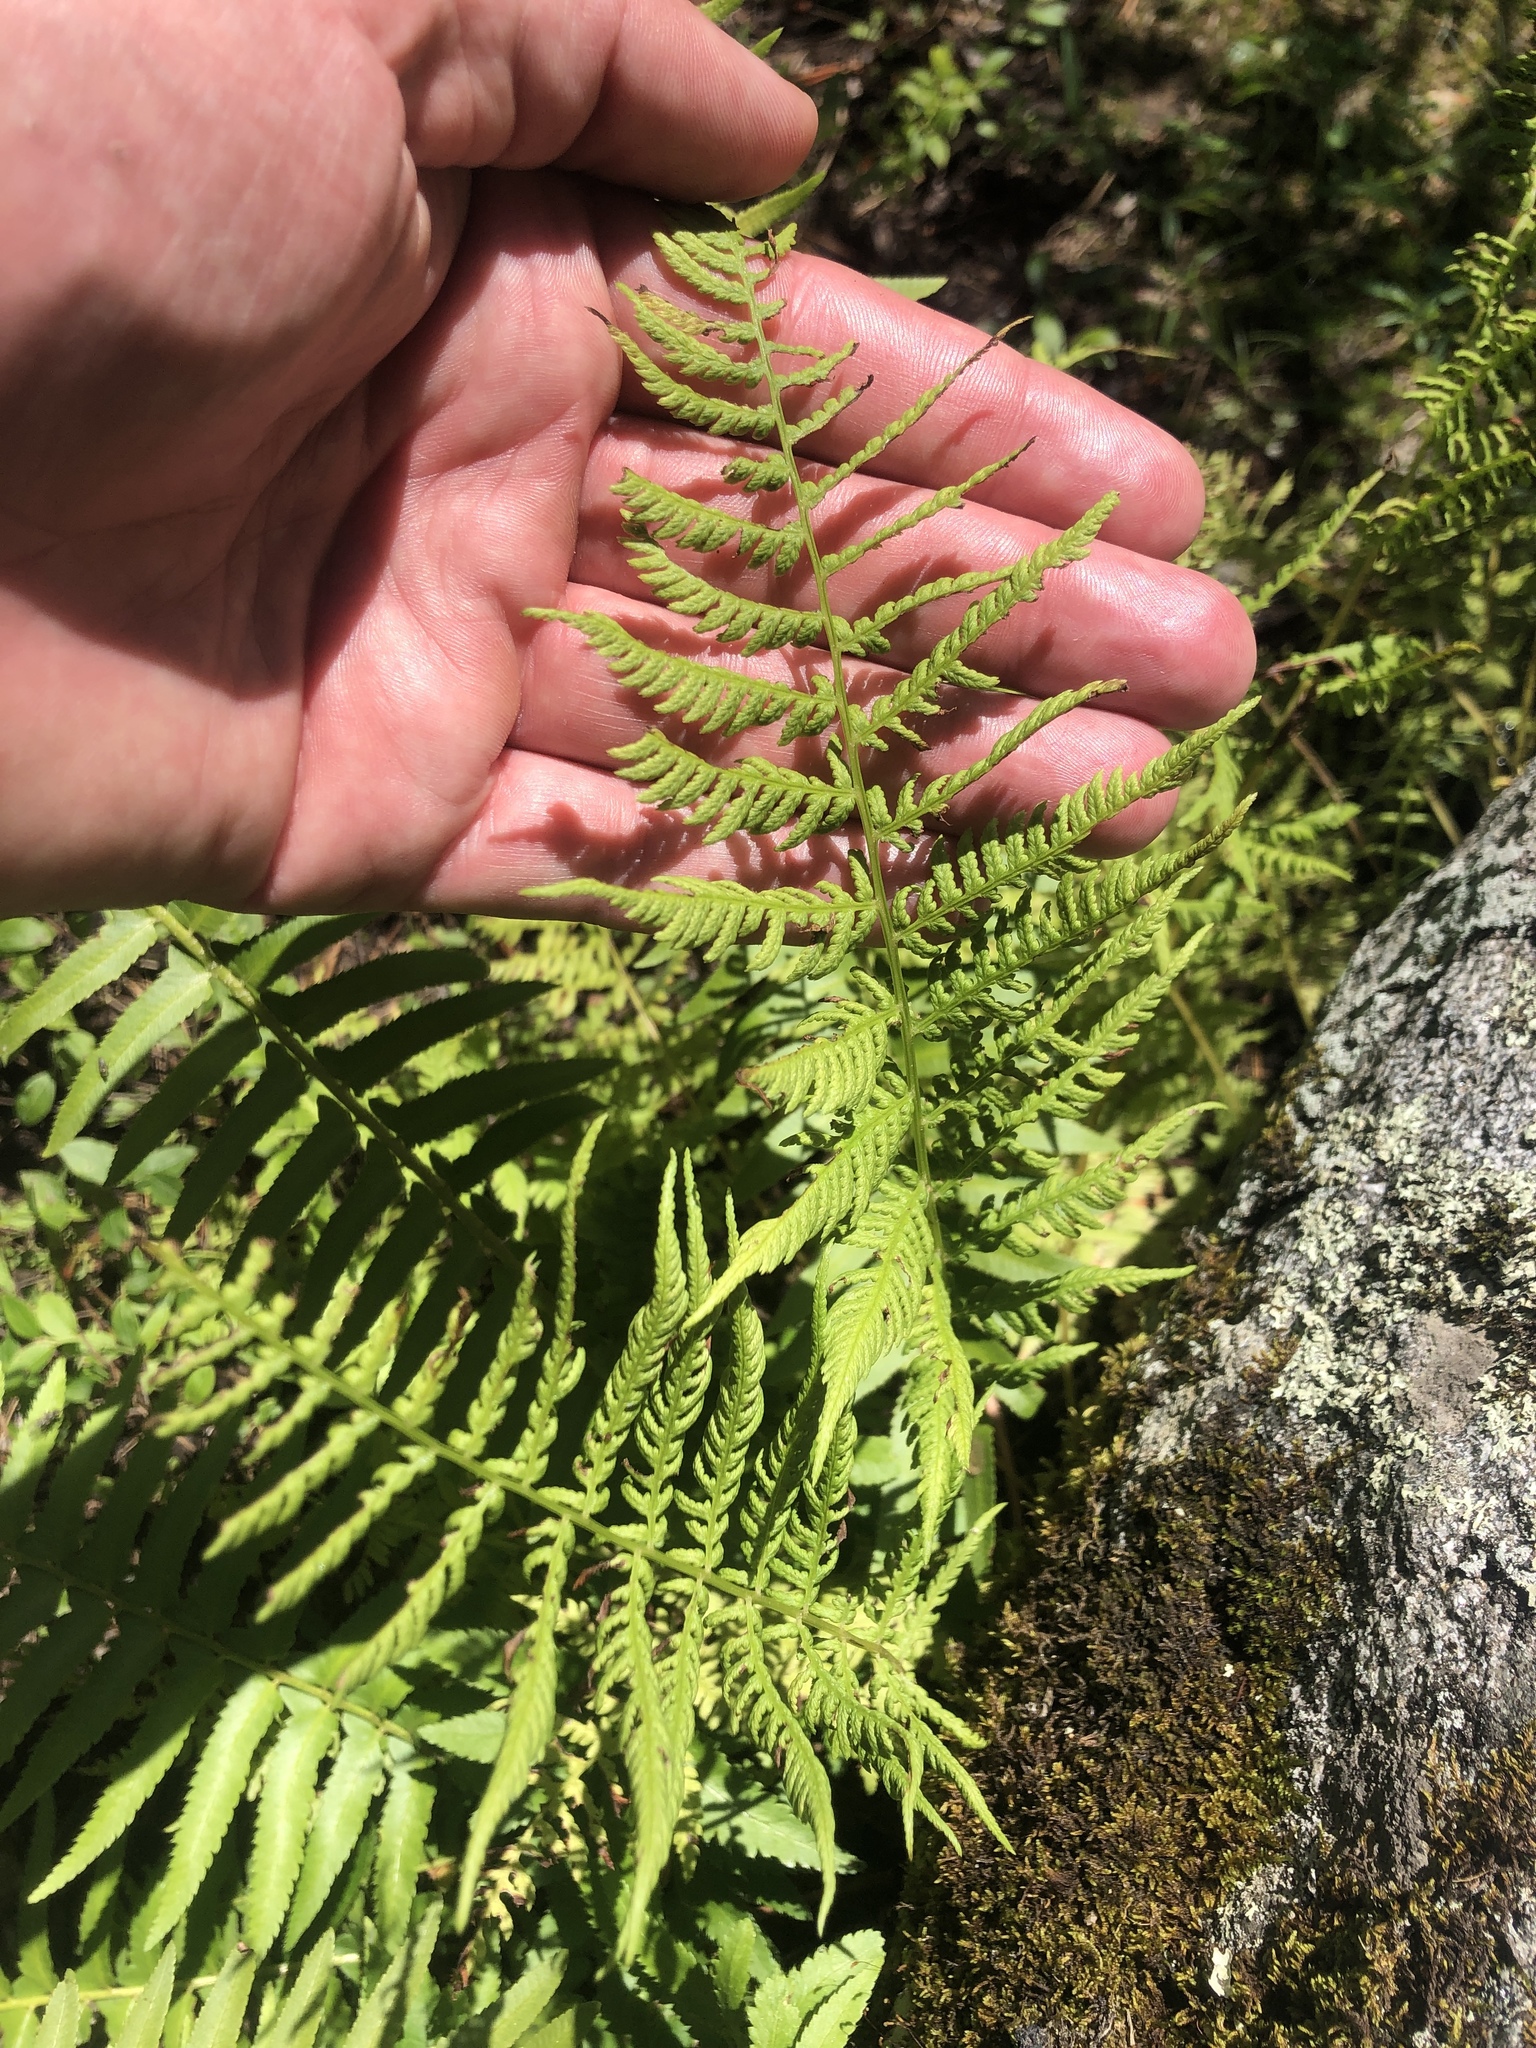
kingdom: Plantae
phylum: Tracheophyta
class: Polypodiopsida
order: Polypodiales
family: Athyriaceae
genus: Athyrium
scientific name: Athyrium angustum
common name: Northern lady fern
